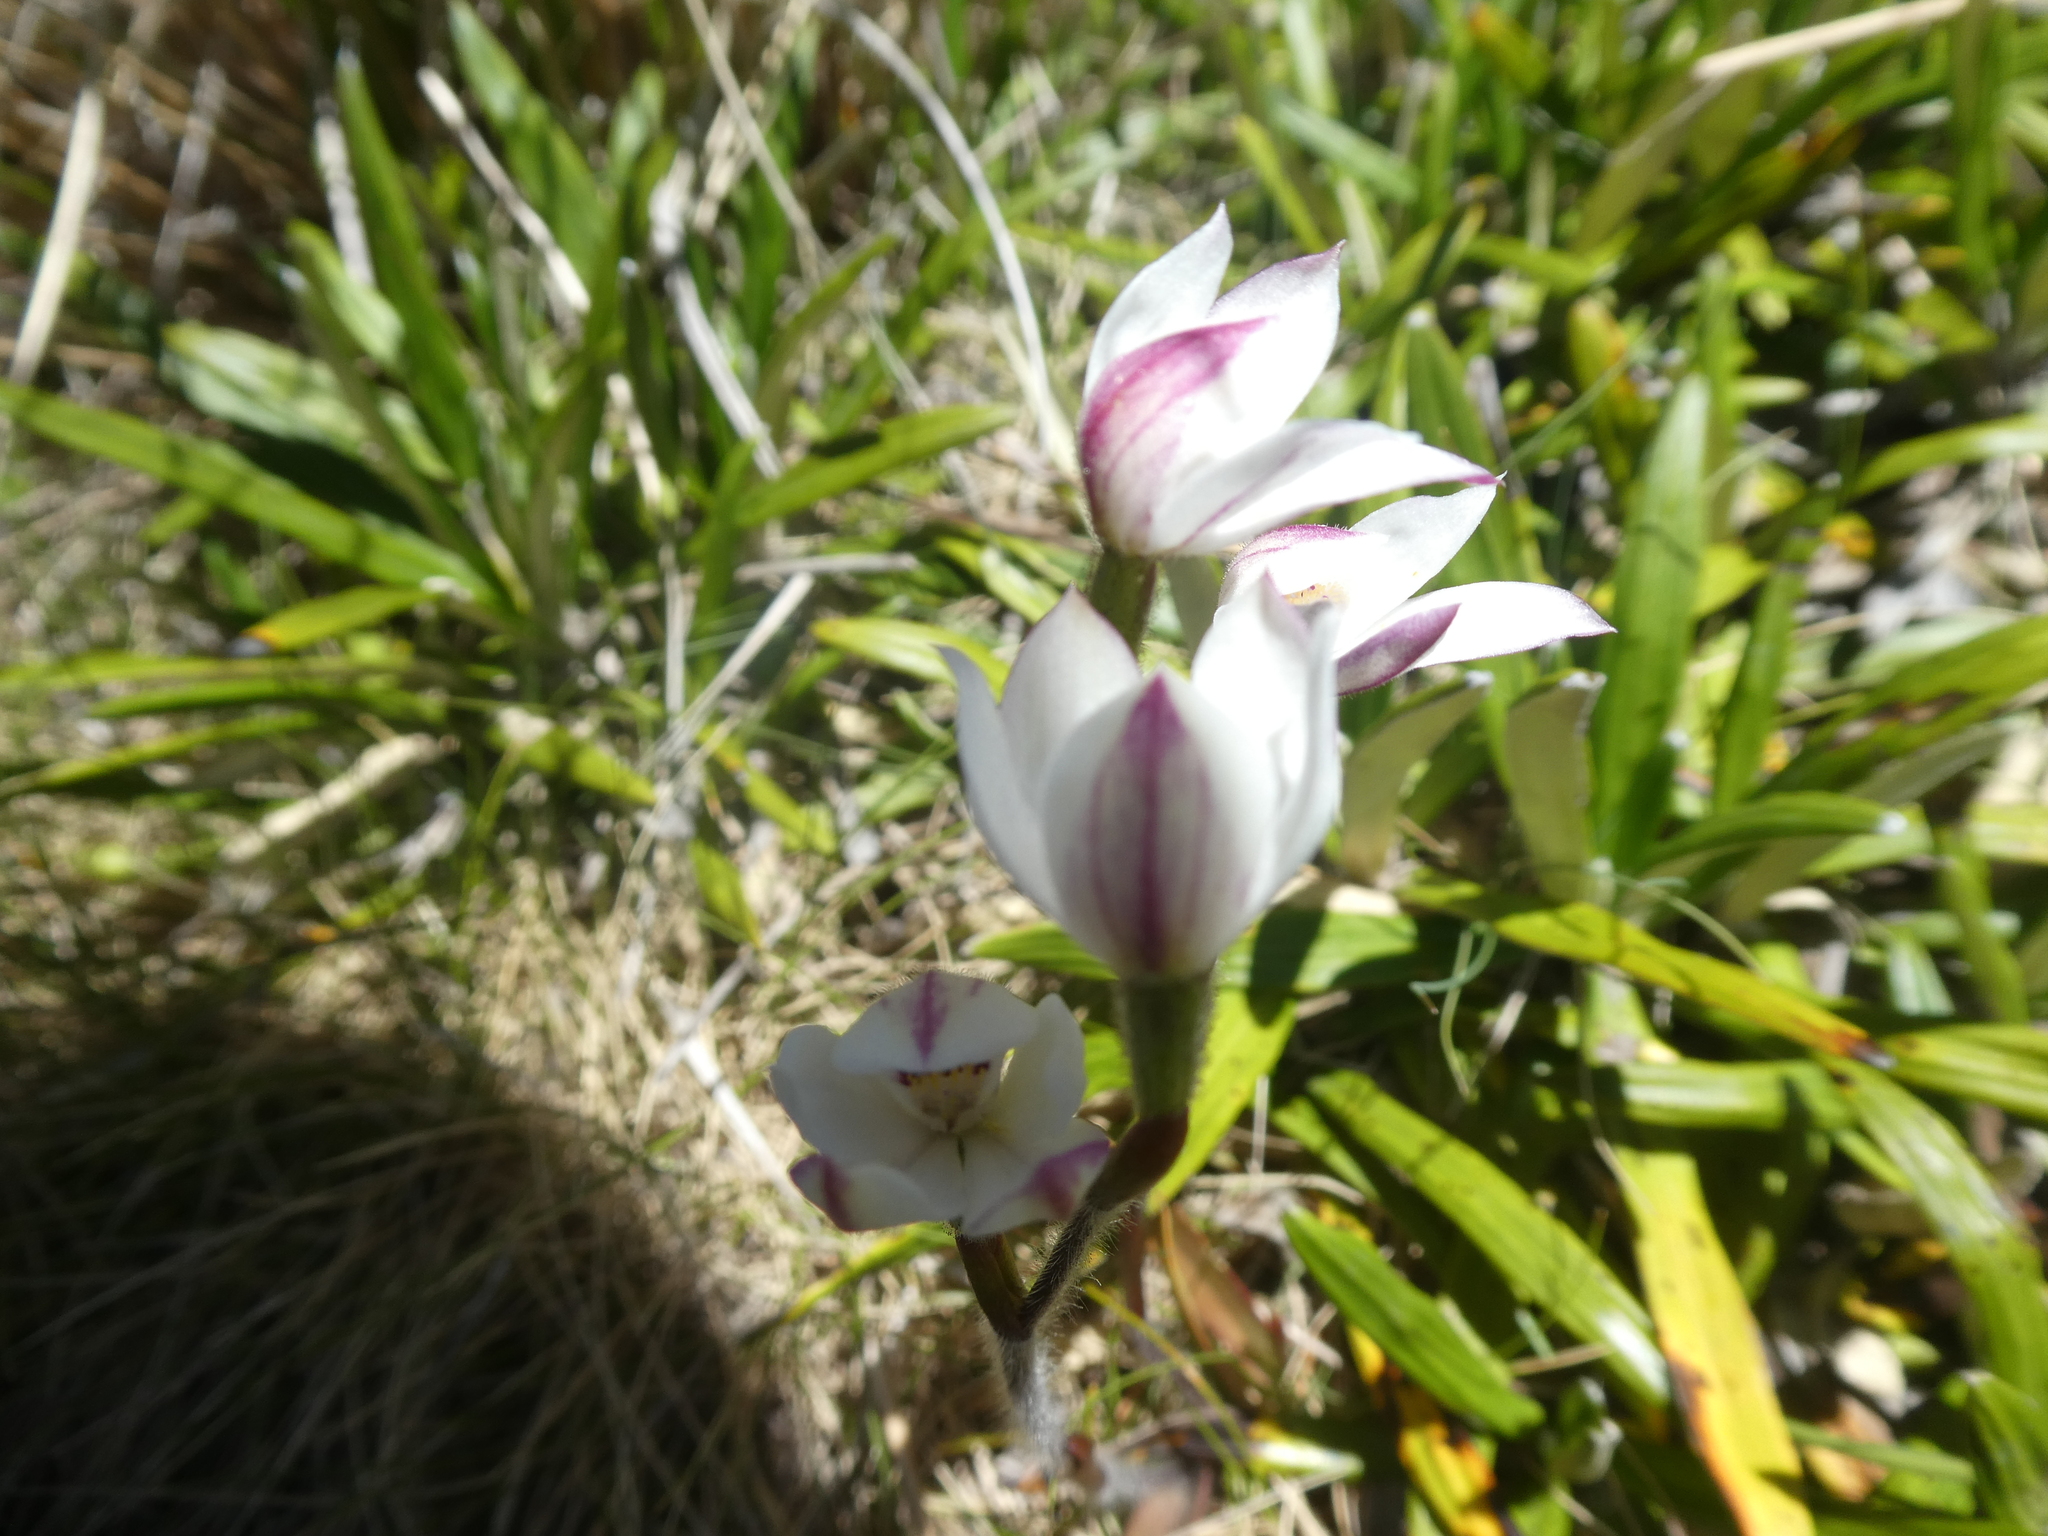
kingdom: Plantae
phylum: Tracheophyta
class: Liliopsida
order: Asparagales
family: Orchidaceae
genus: Caladenia
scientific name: Caladenia lyallii
